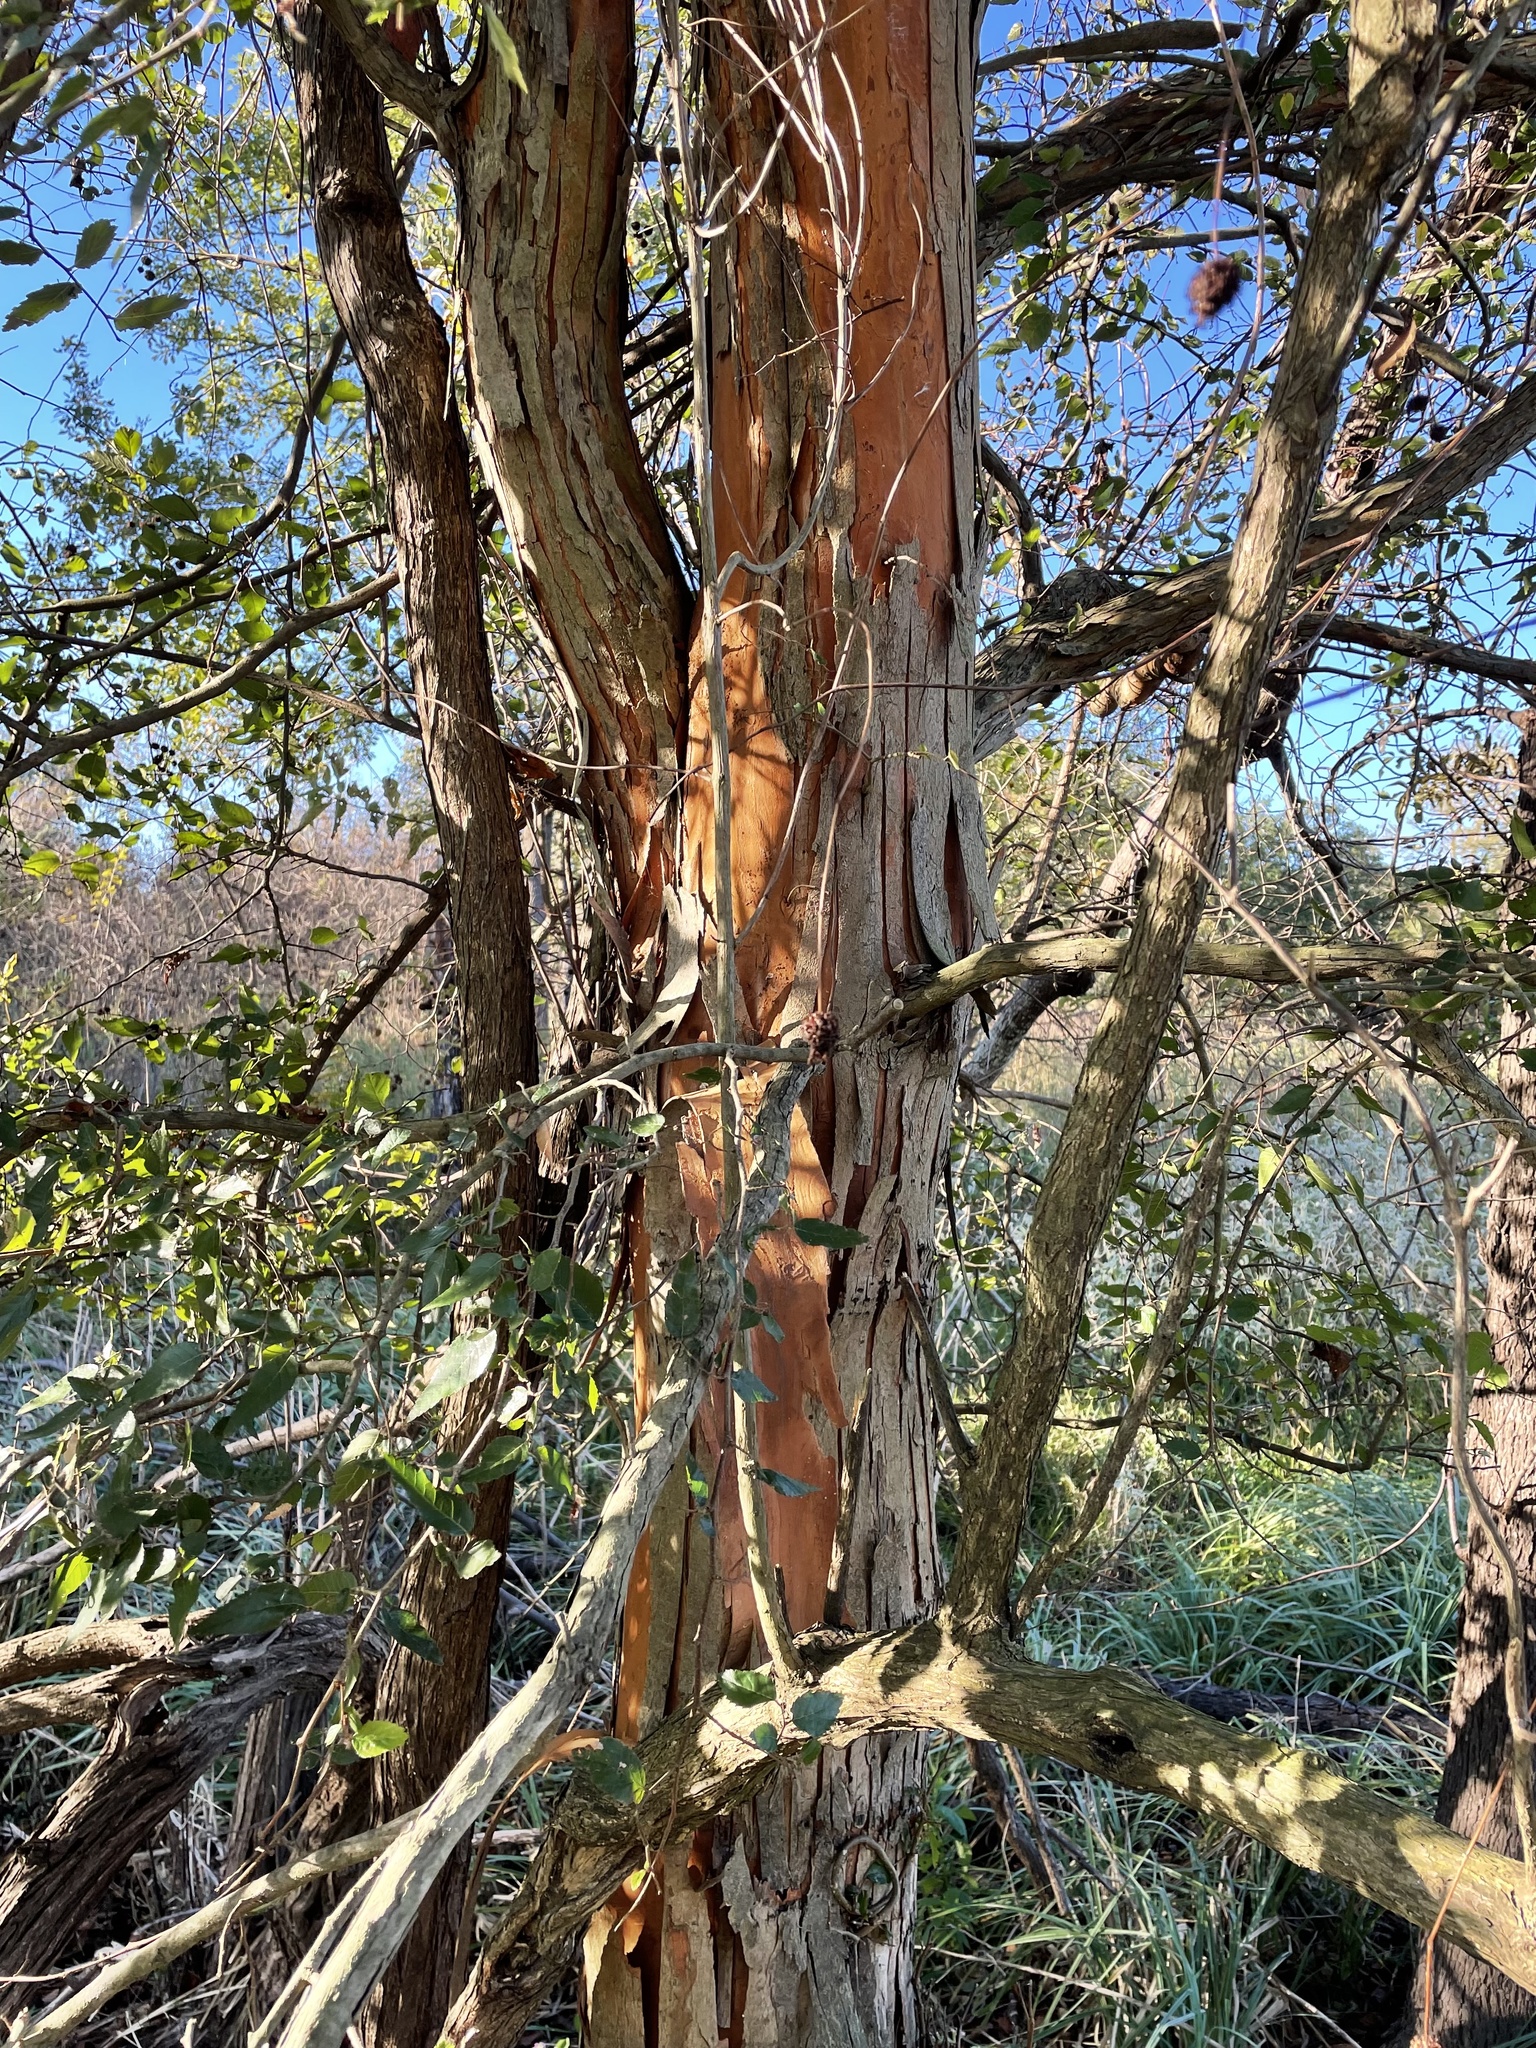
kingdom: Plantae
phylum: Tracheophyta
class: Magnoliopsida
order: Rosales
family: Ulmaceae
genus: Planera
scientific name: Planera aquatica
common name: Water-elm
